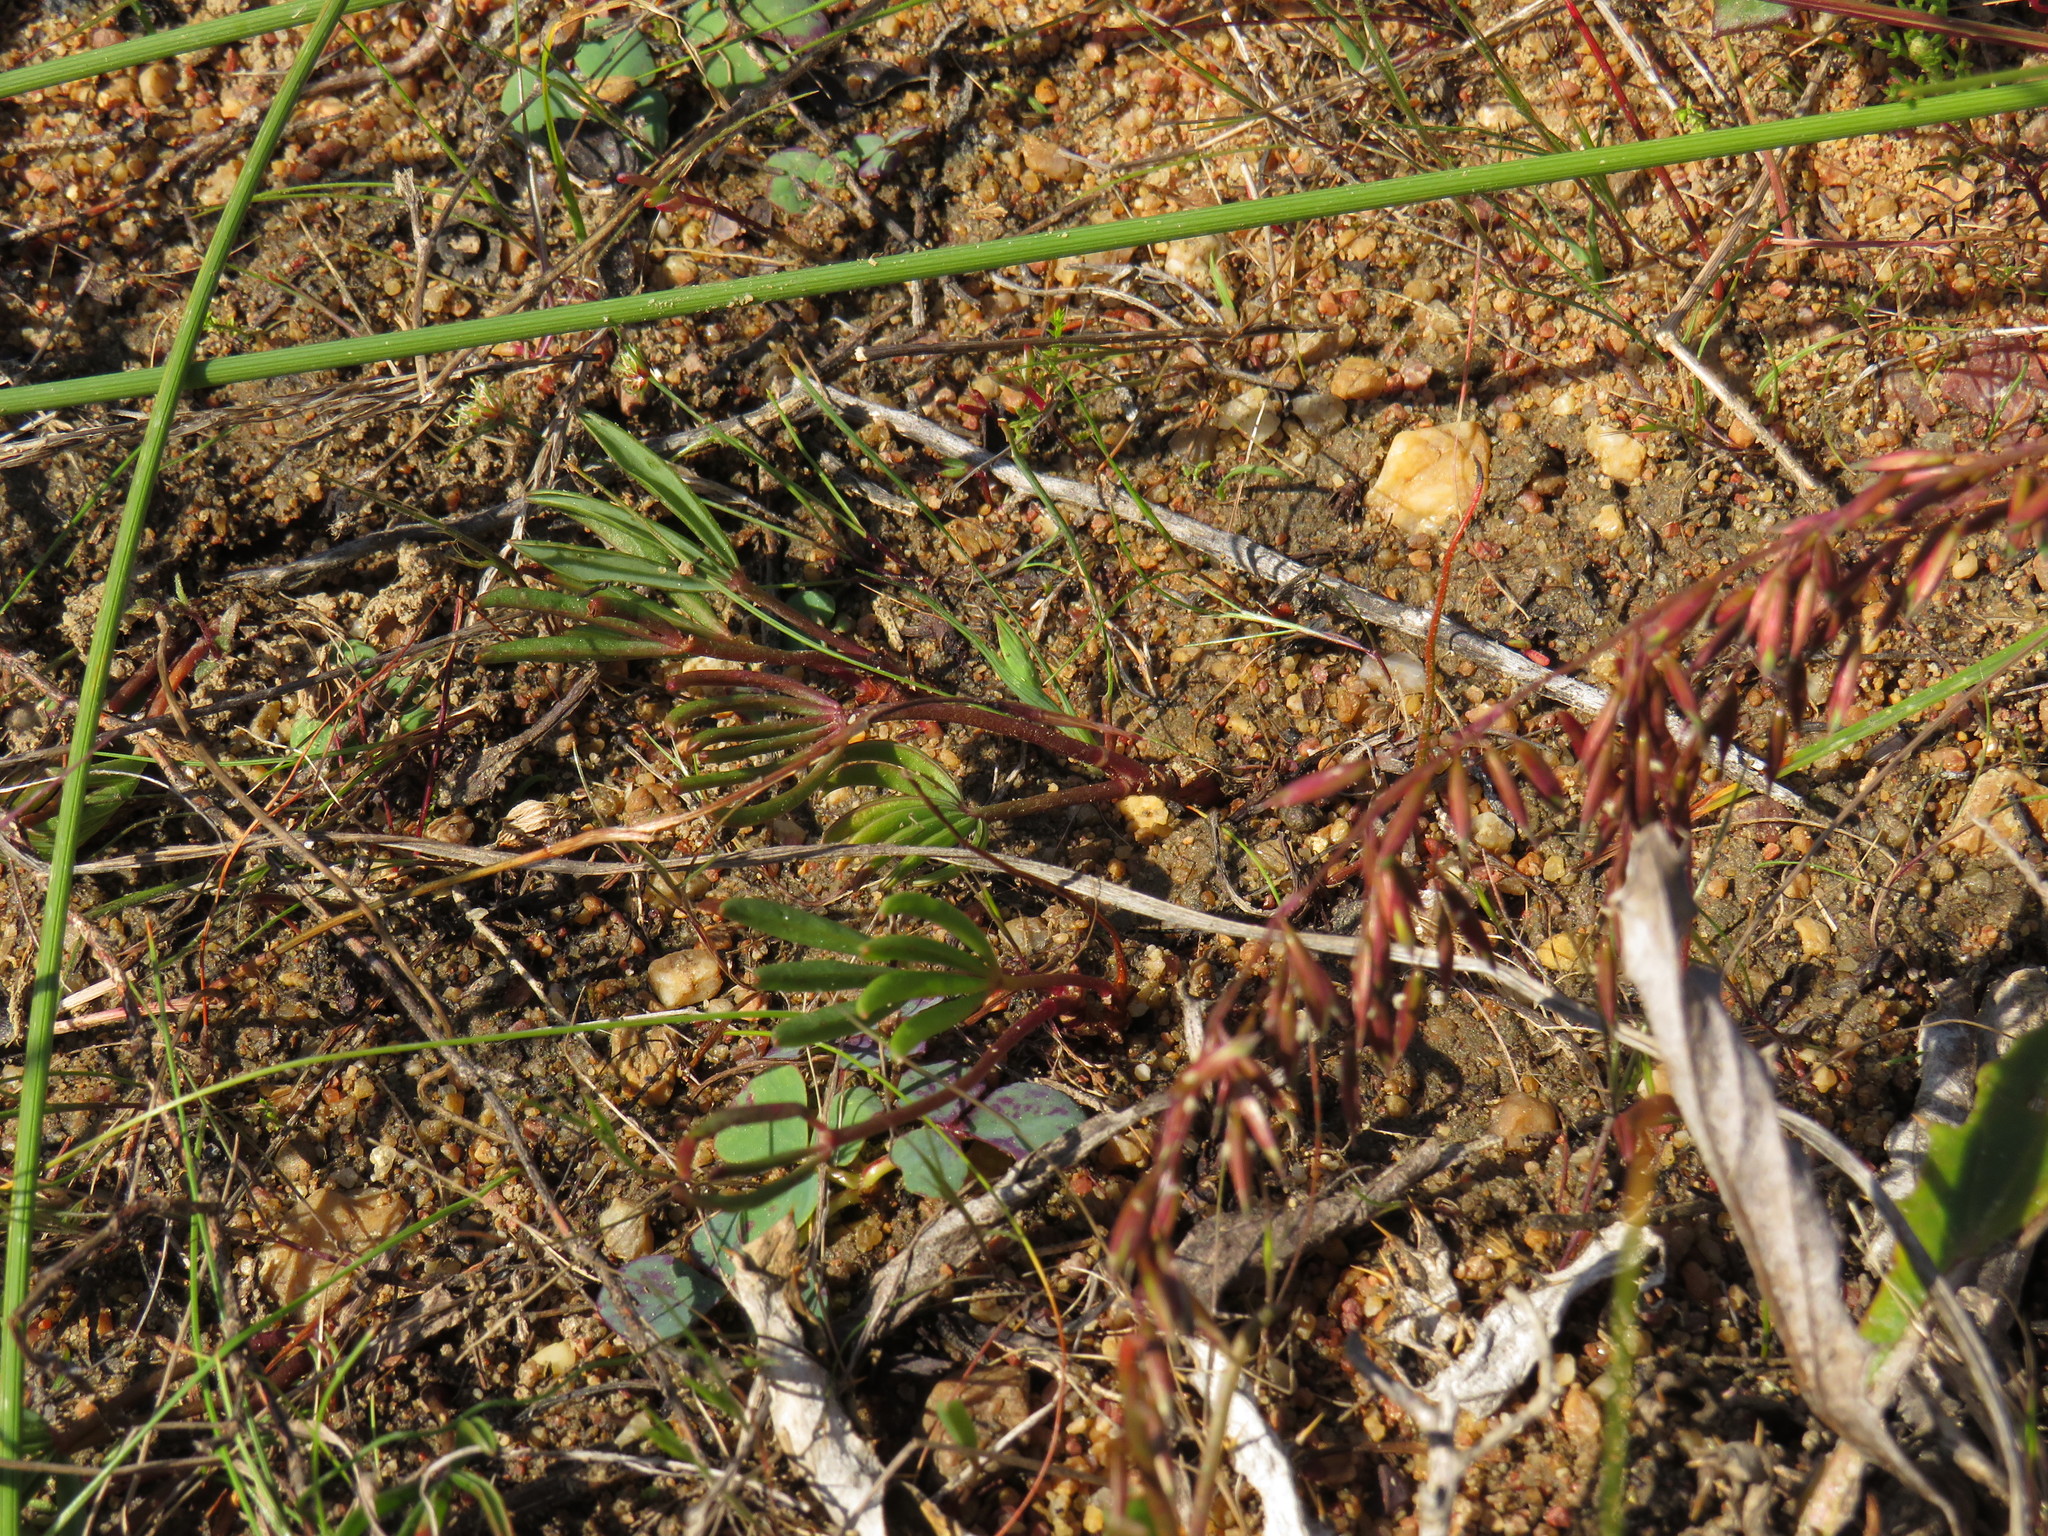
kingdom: Plantae
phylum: Tracheophyta
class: Magnoliopsida
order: Oxalidales
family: Oxalidaceae
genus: Oxalis
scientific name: Oxalis flava
